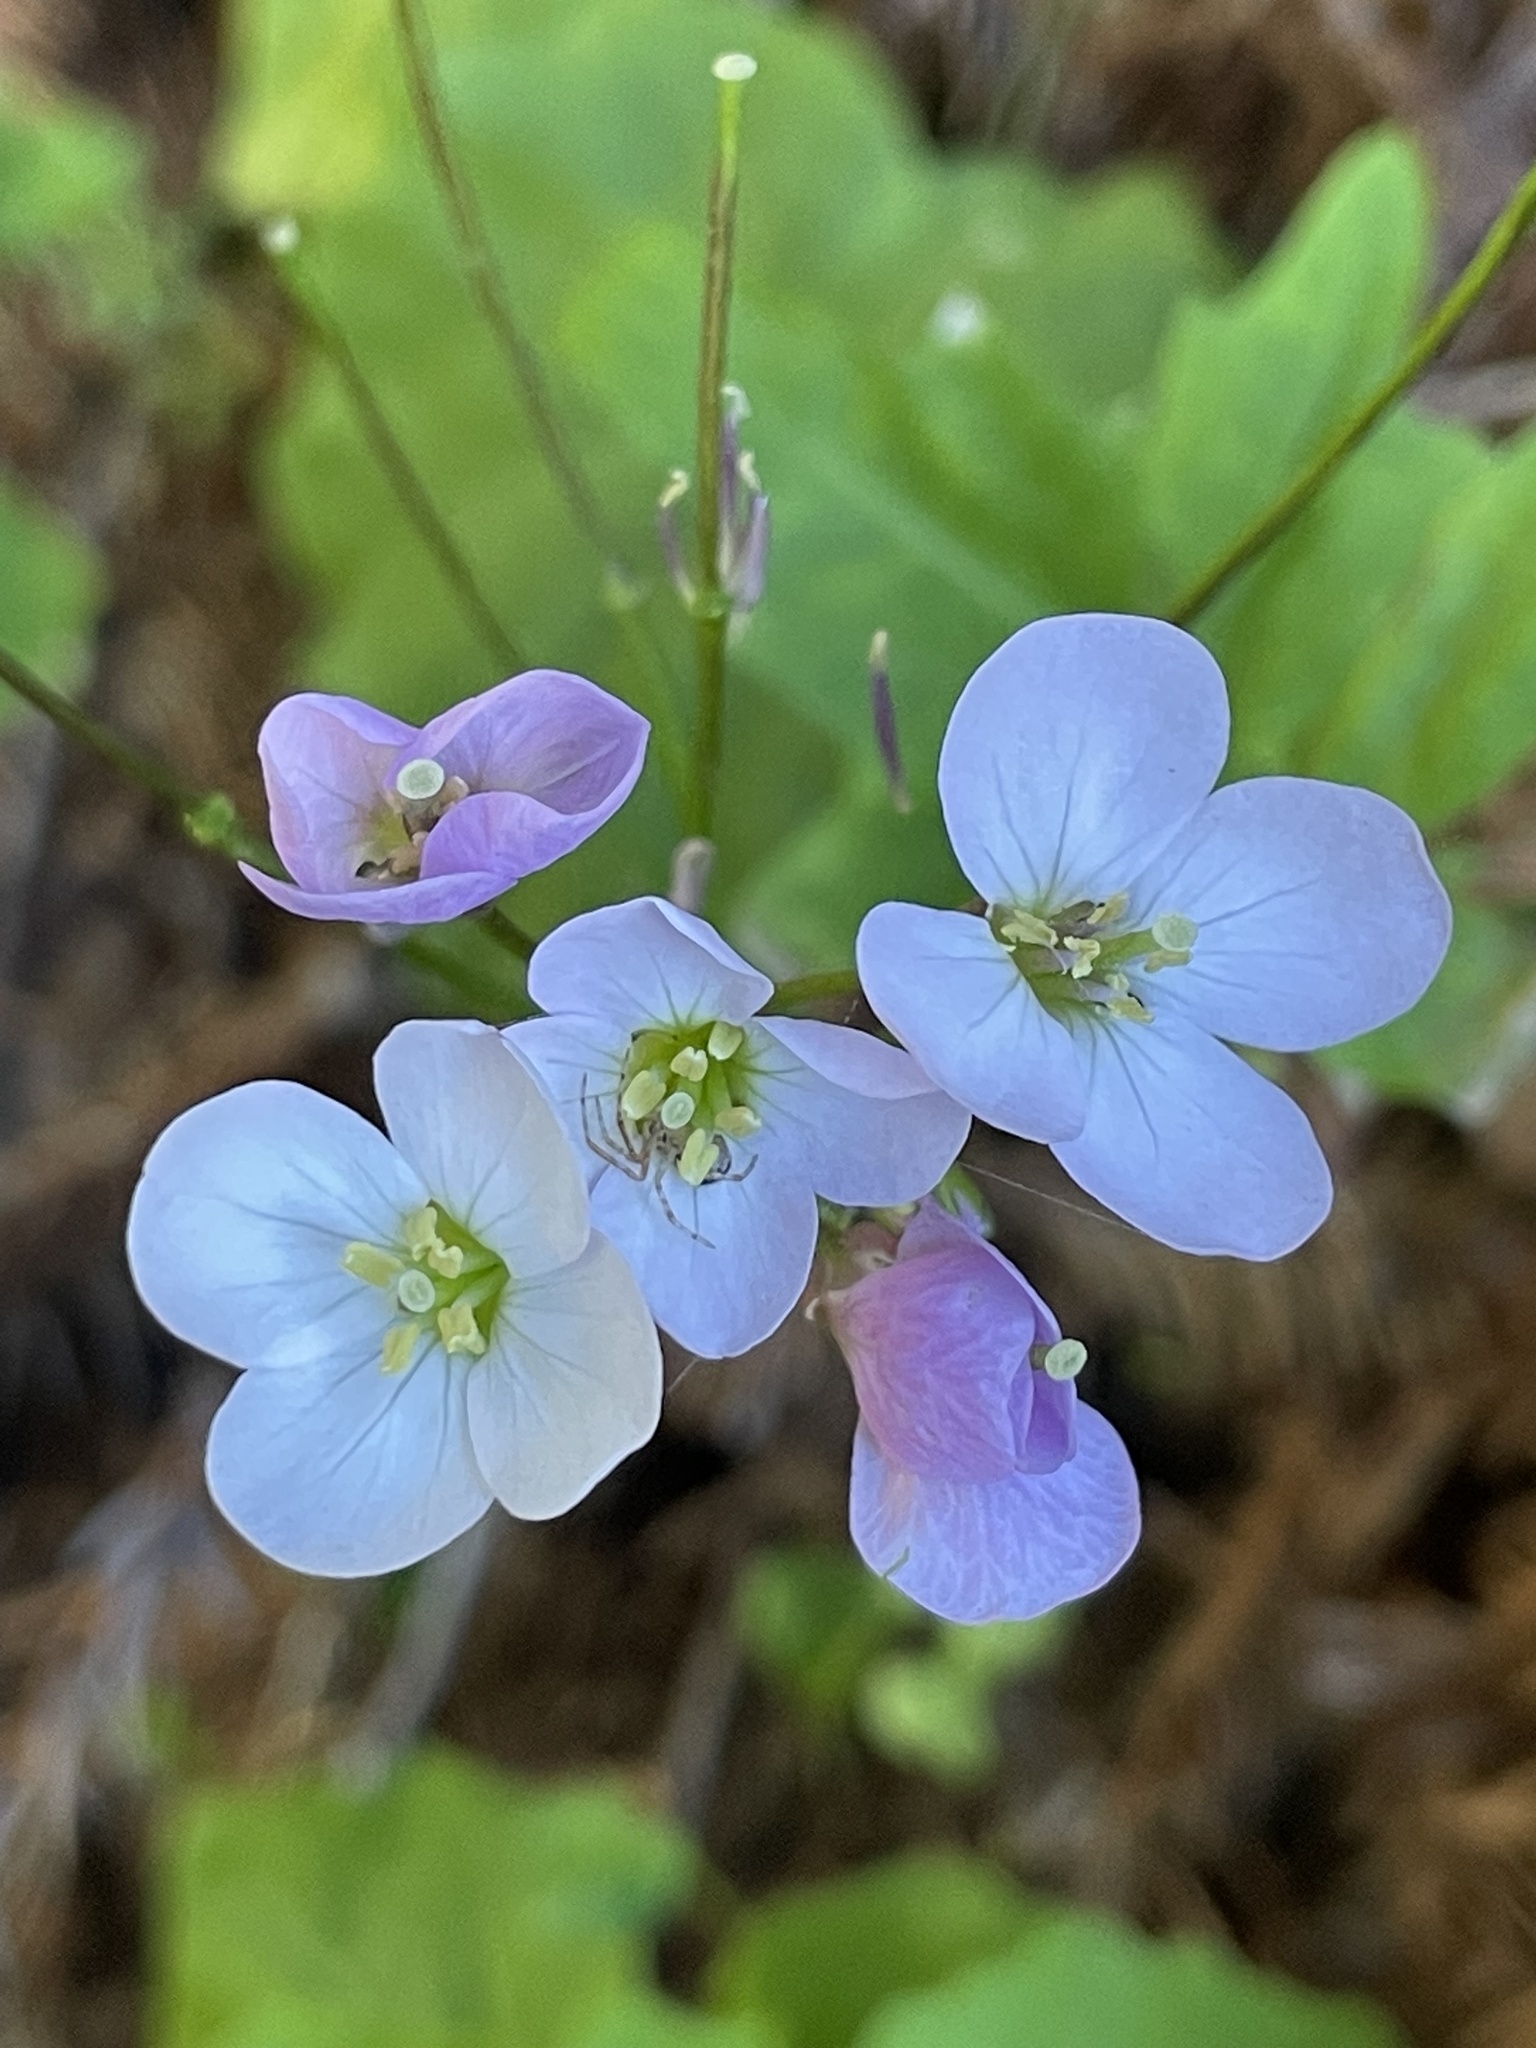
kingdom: Plantae
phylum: Tracheophyta
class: Magnoliopsida
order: Brassicales
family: Brassicaceae
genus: Cardamine
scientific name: Cardamine californica
